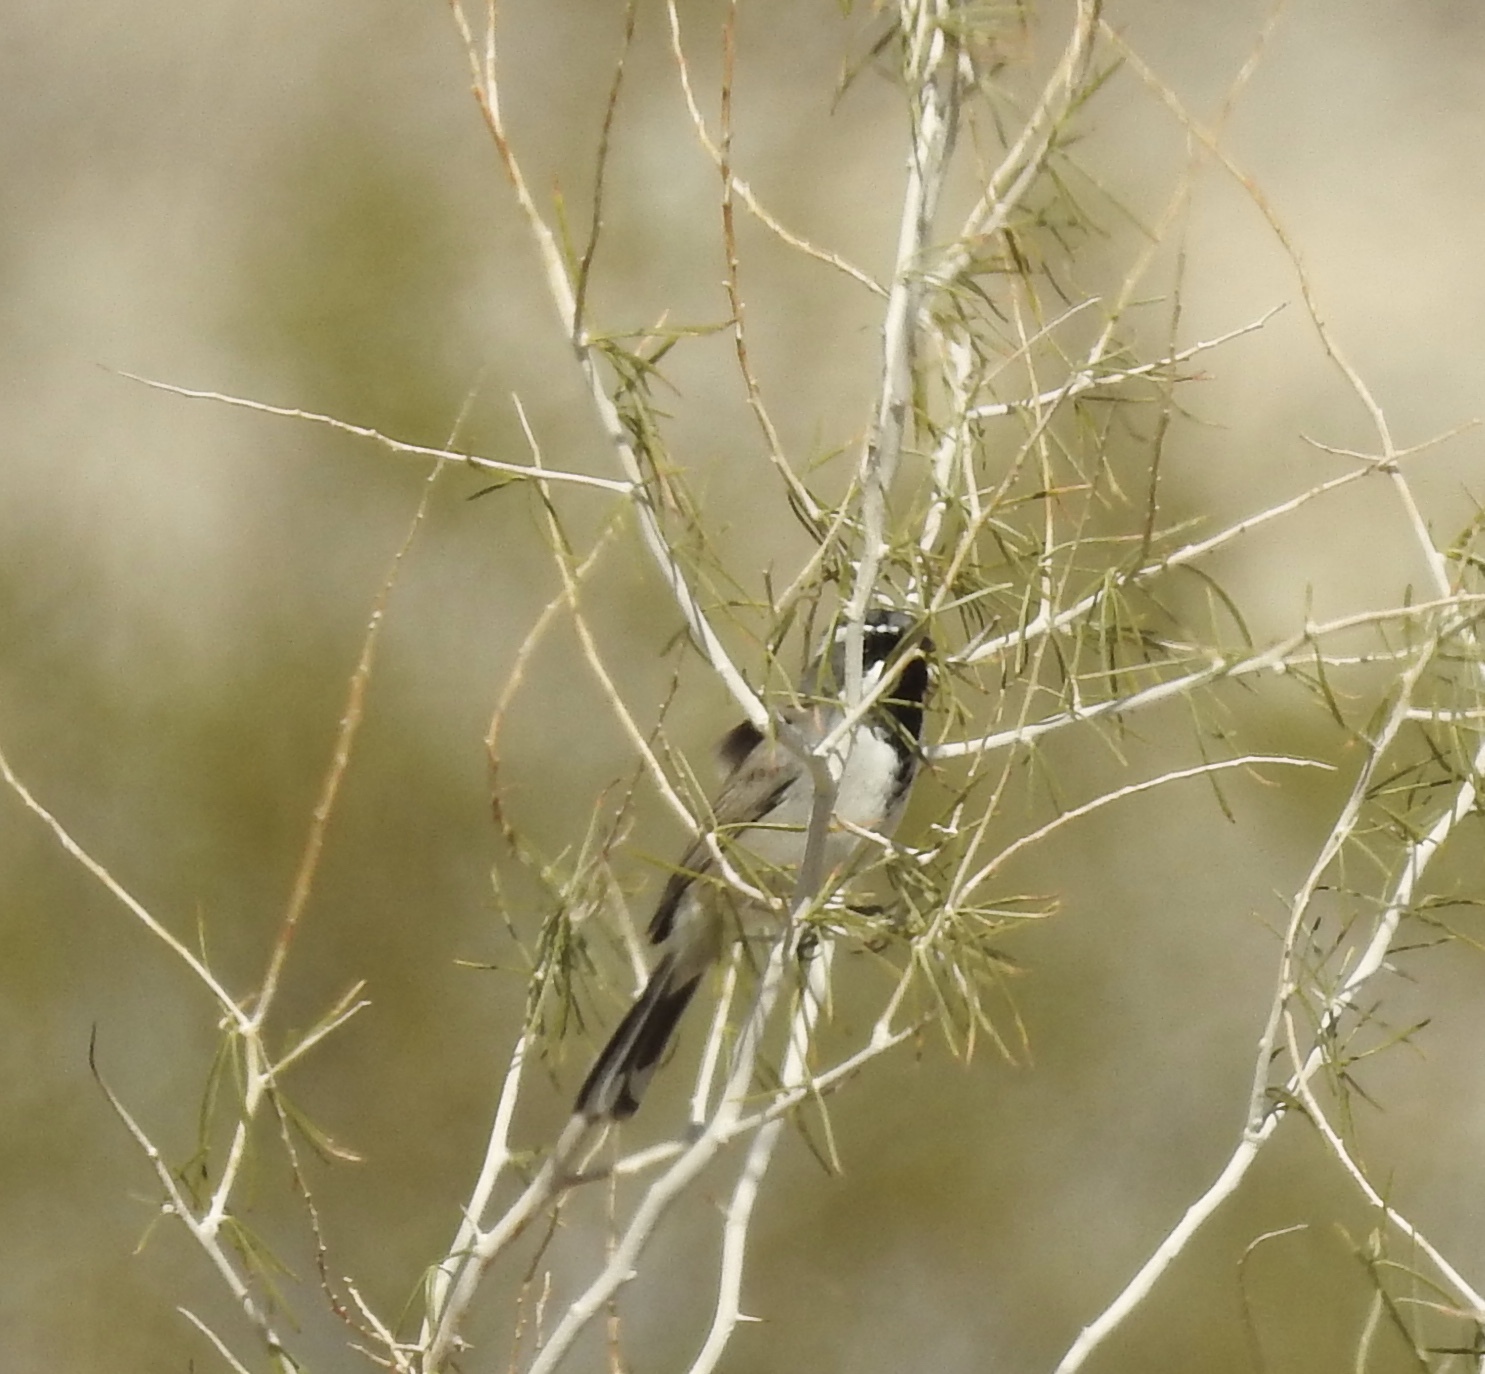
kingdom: Animalia
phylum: Chordata
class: Aves
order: Passeriformes
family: Passerellidae
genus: Amphispiza
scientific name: Amphispiza bilineata
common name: Black-throated sparrow
